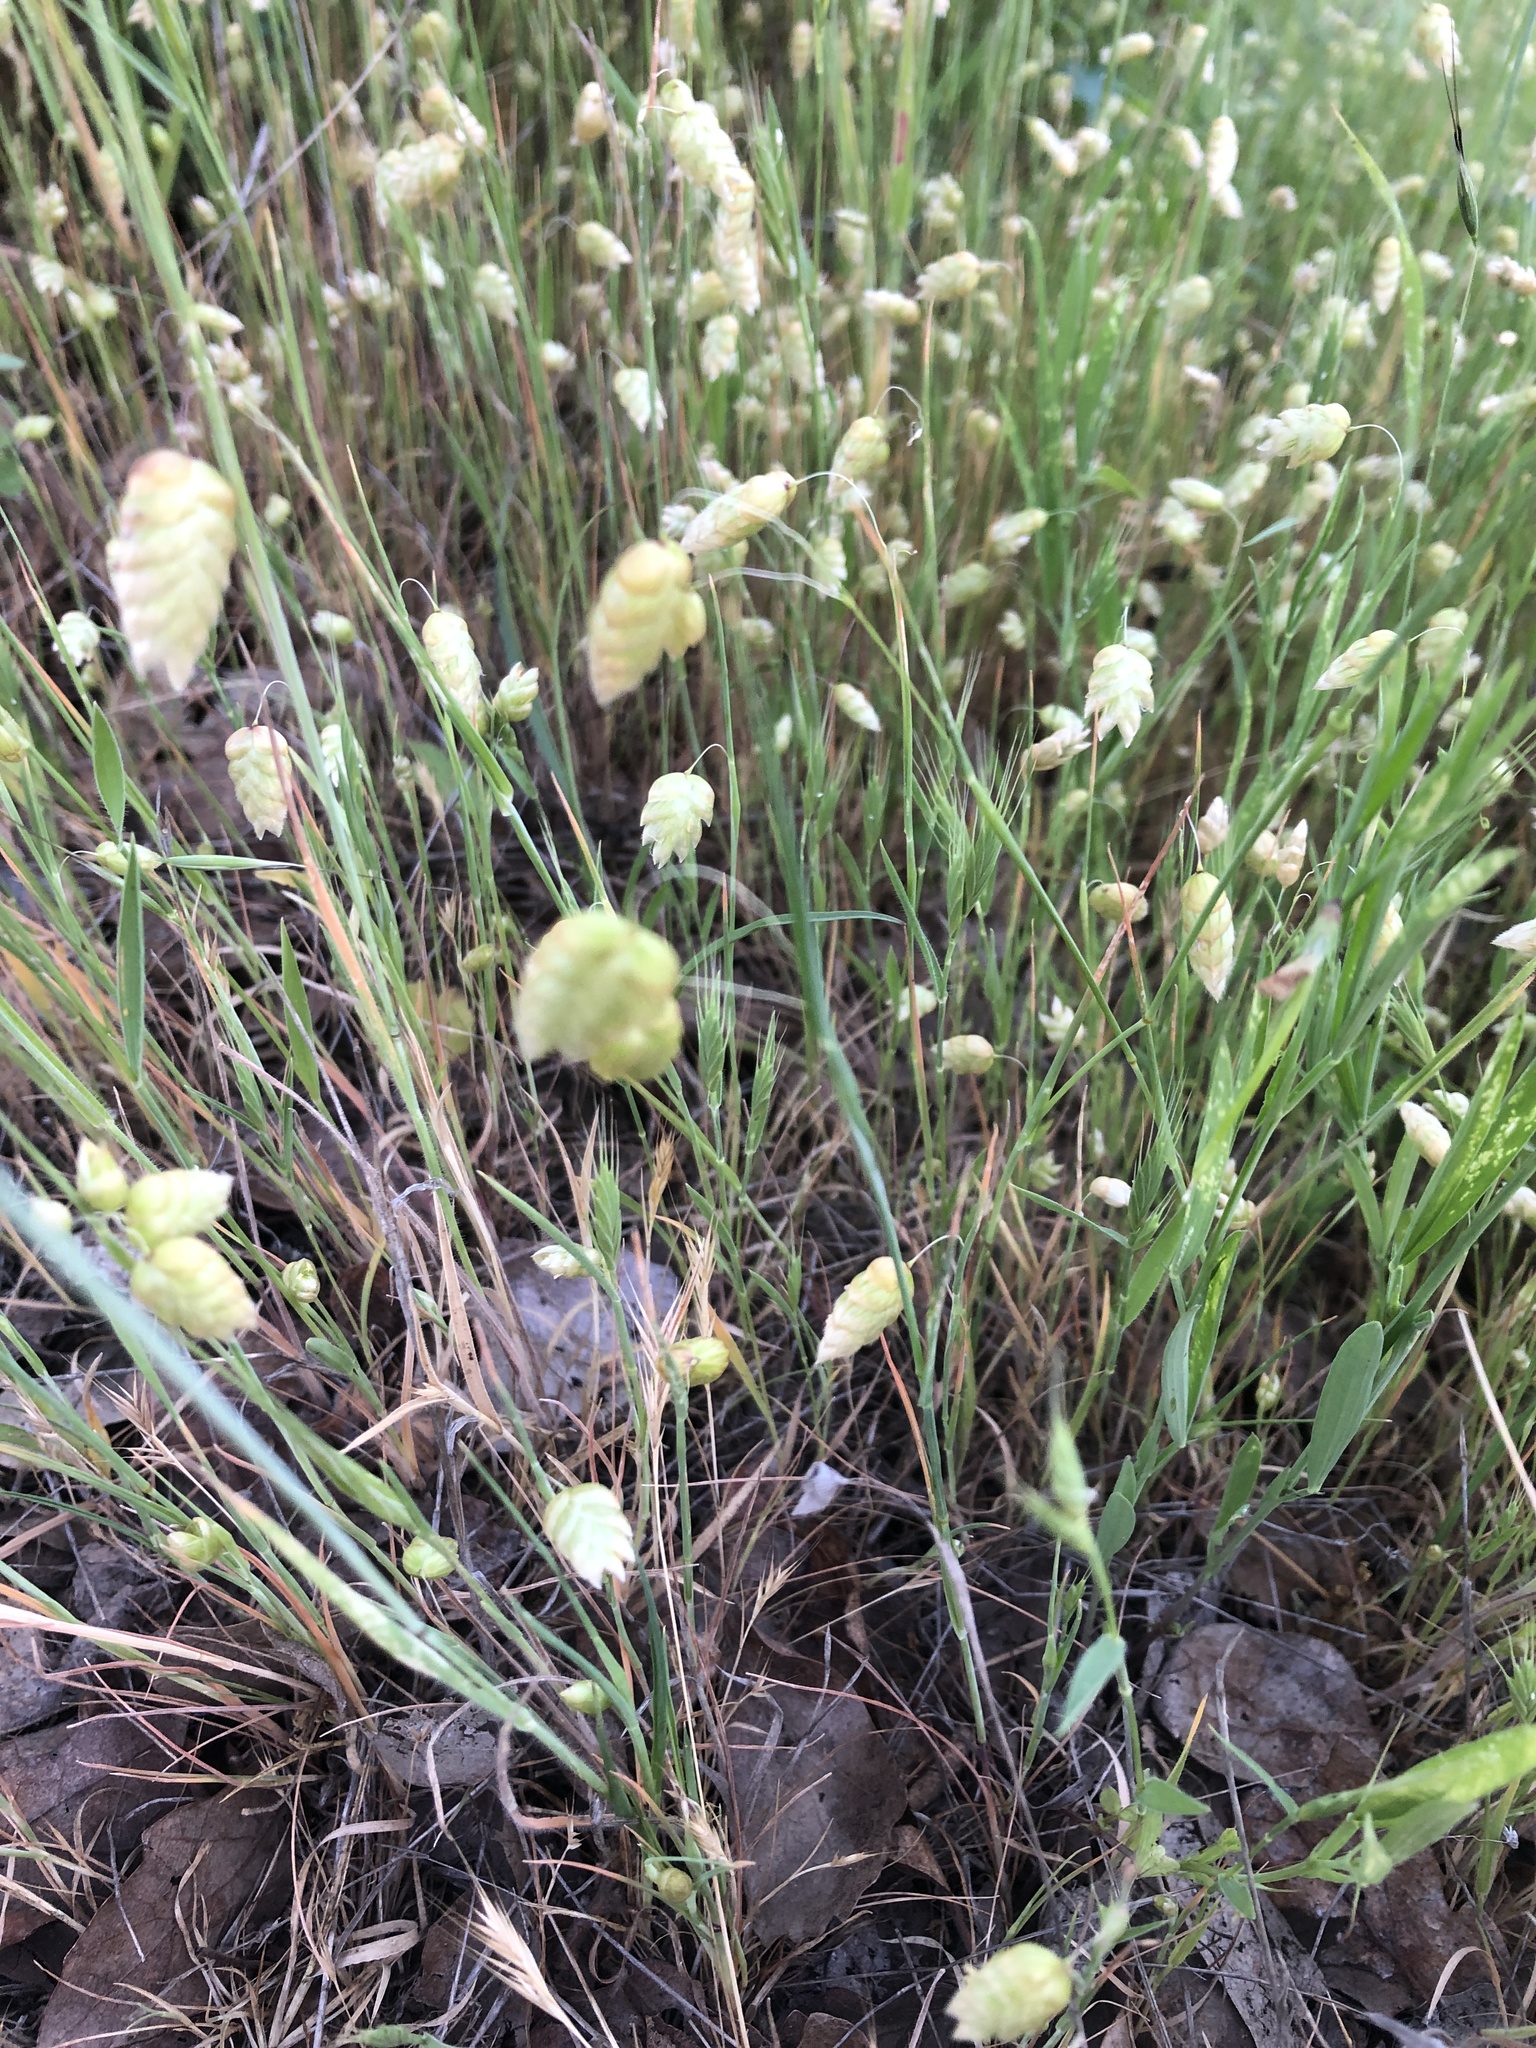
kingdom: Plantae
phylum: Tracheophyta
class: Liliopsida
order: Poales
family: Poaceae
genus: Briza
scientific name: Briza maxima
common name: Big quakinggrass
